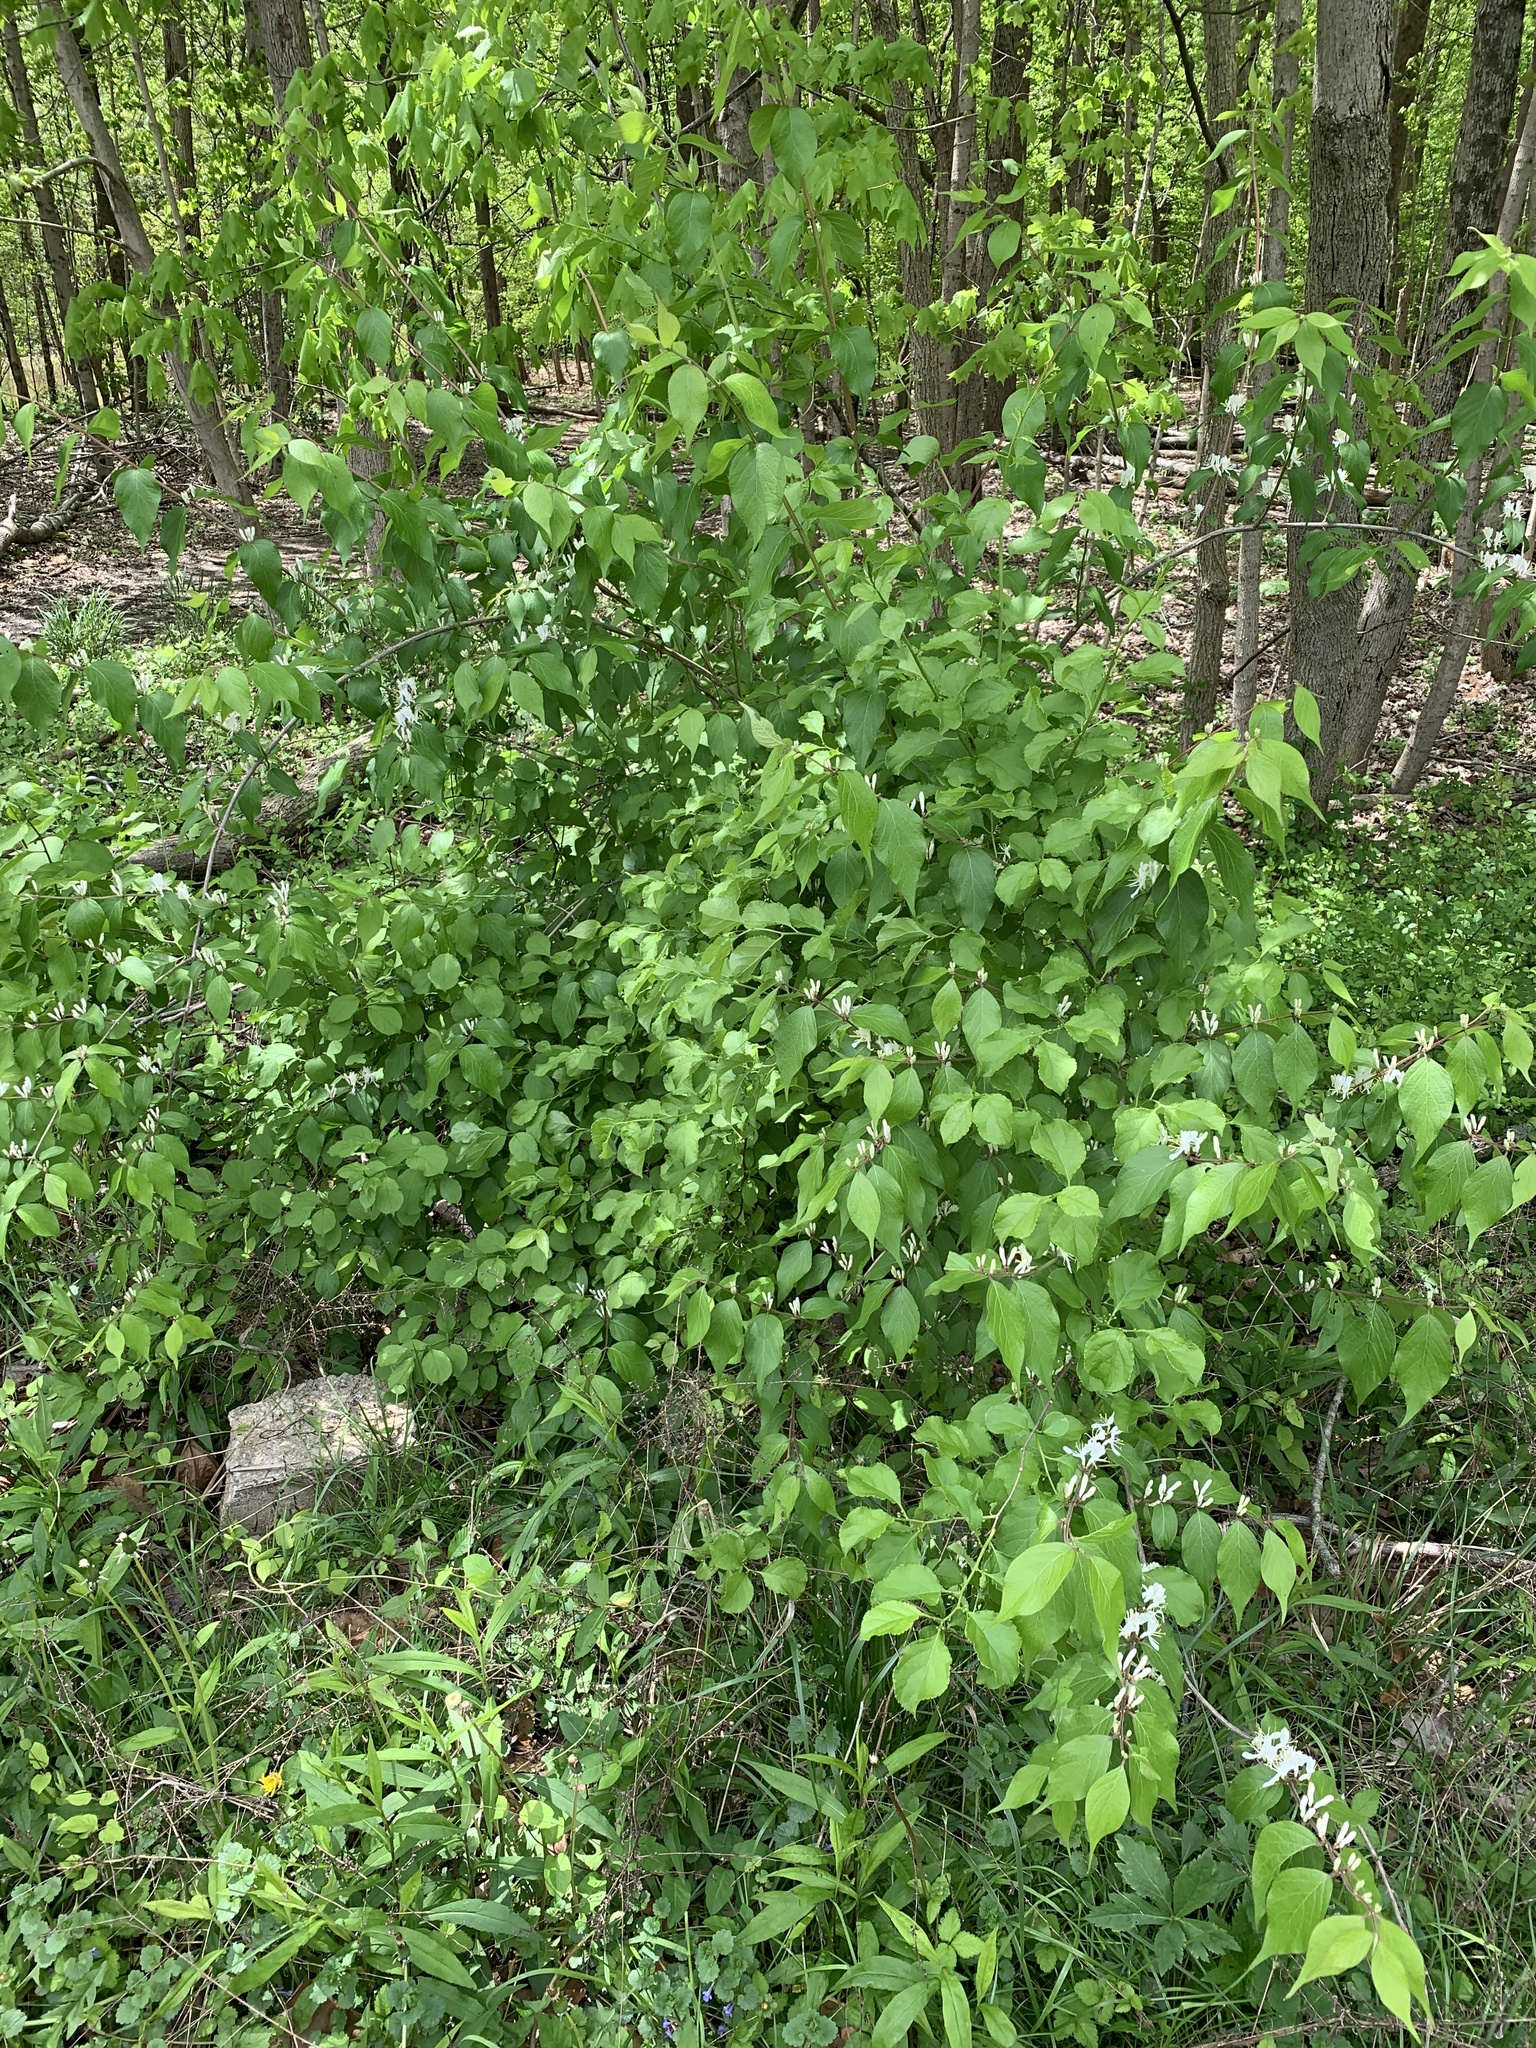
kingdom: Plantae
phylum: Tracheophyta
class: Magnoliopsida
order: Dipsacales
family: Caprifoliaceae
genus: Lonicera
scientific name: Lonicera maackii
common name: Amur honeysuckle
